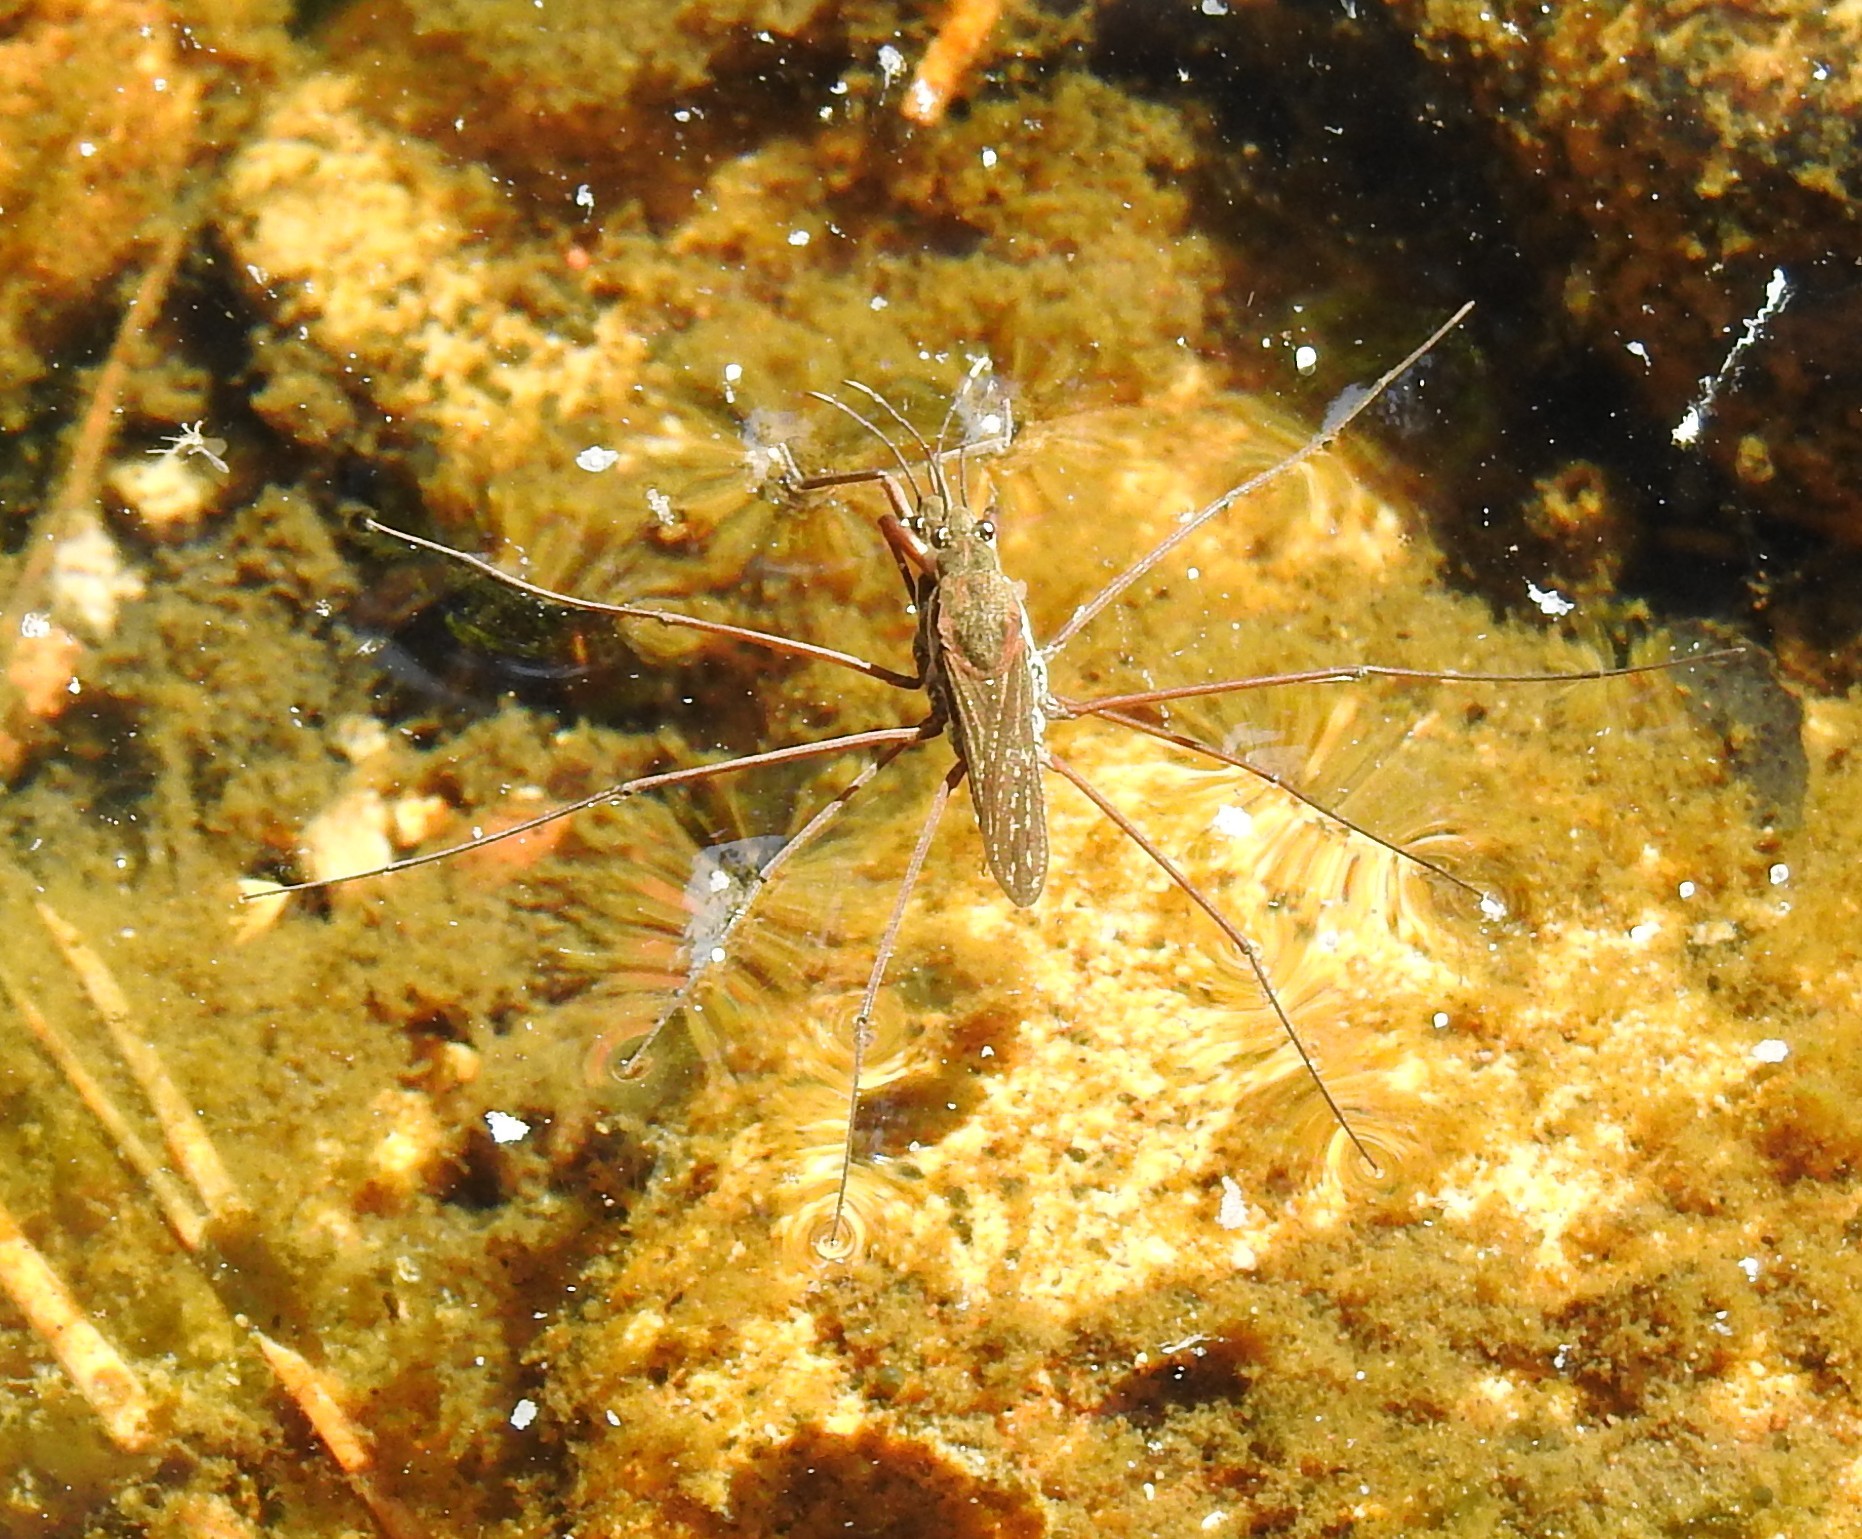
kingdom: Animalia
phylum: Arthropoda
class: Insecta
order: Hemiptera
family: Gerridae
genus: Aquarius
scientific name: Aquarius
